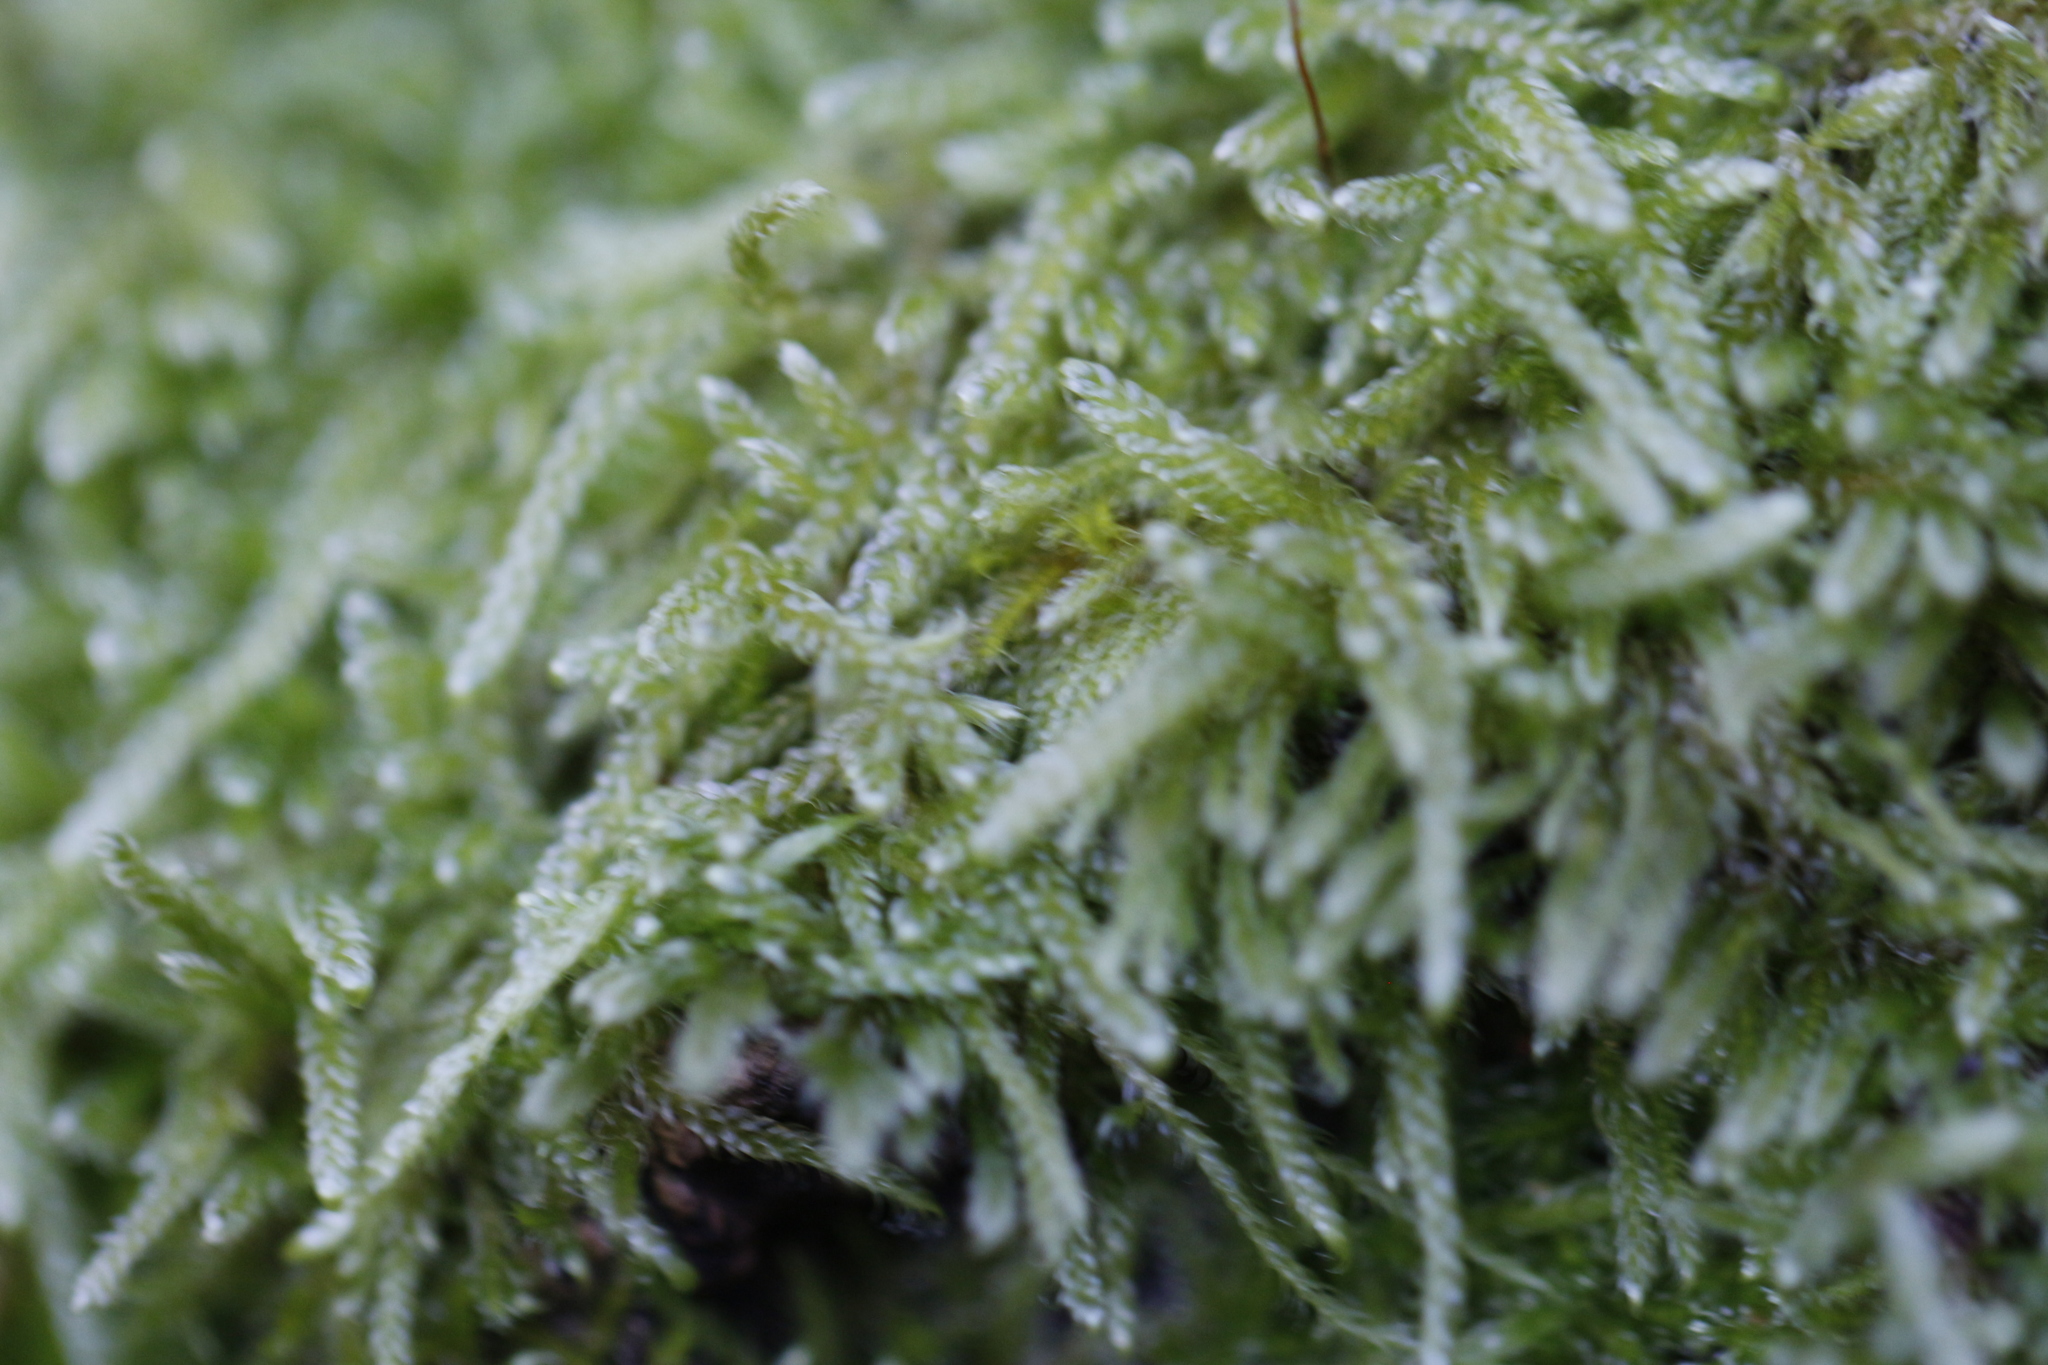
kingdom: Plantae
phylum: Bryophyta
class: Bryopsida
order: Hypnales
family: Hypnaceae
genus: Hypnum
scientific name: Hypnum cupressiforme
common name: Cypress-leaved plait-moss
